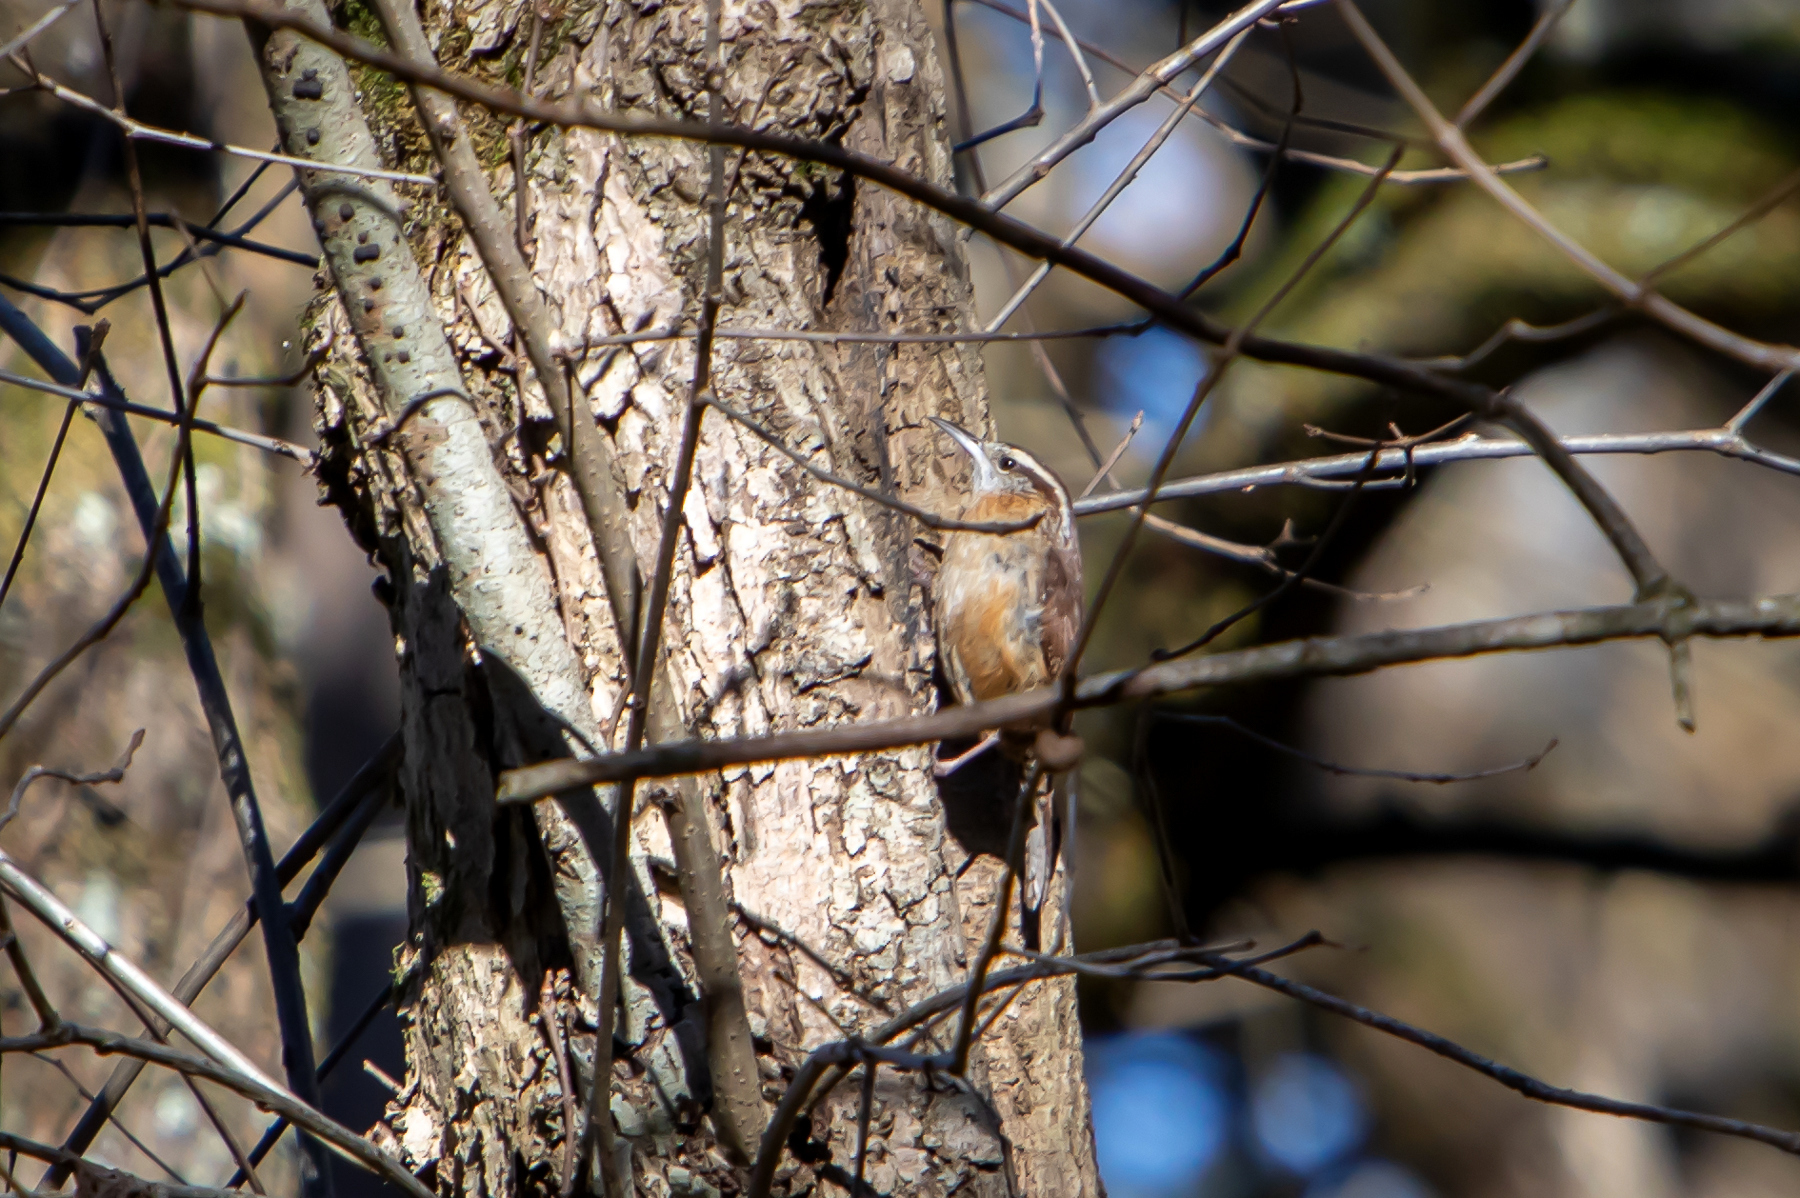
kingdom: Animalia
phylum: Chordata
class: Aves
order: Passeriformes
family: Troglodytidae
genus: Thryothorus
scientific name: Thryothorus ludovicianus
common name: Carolina wren
